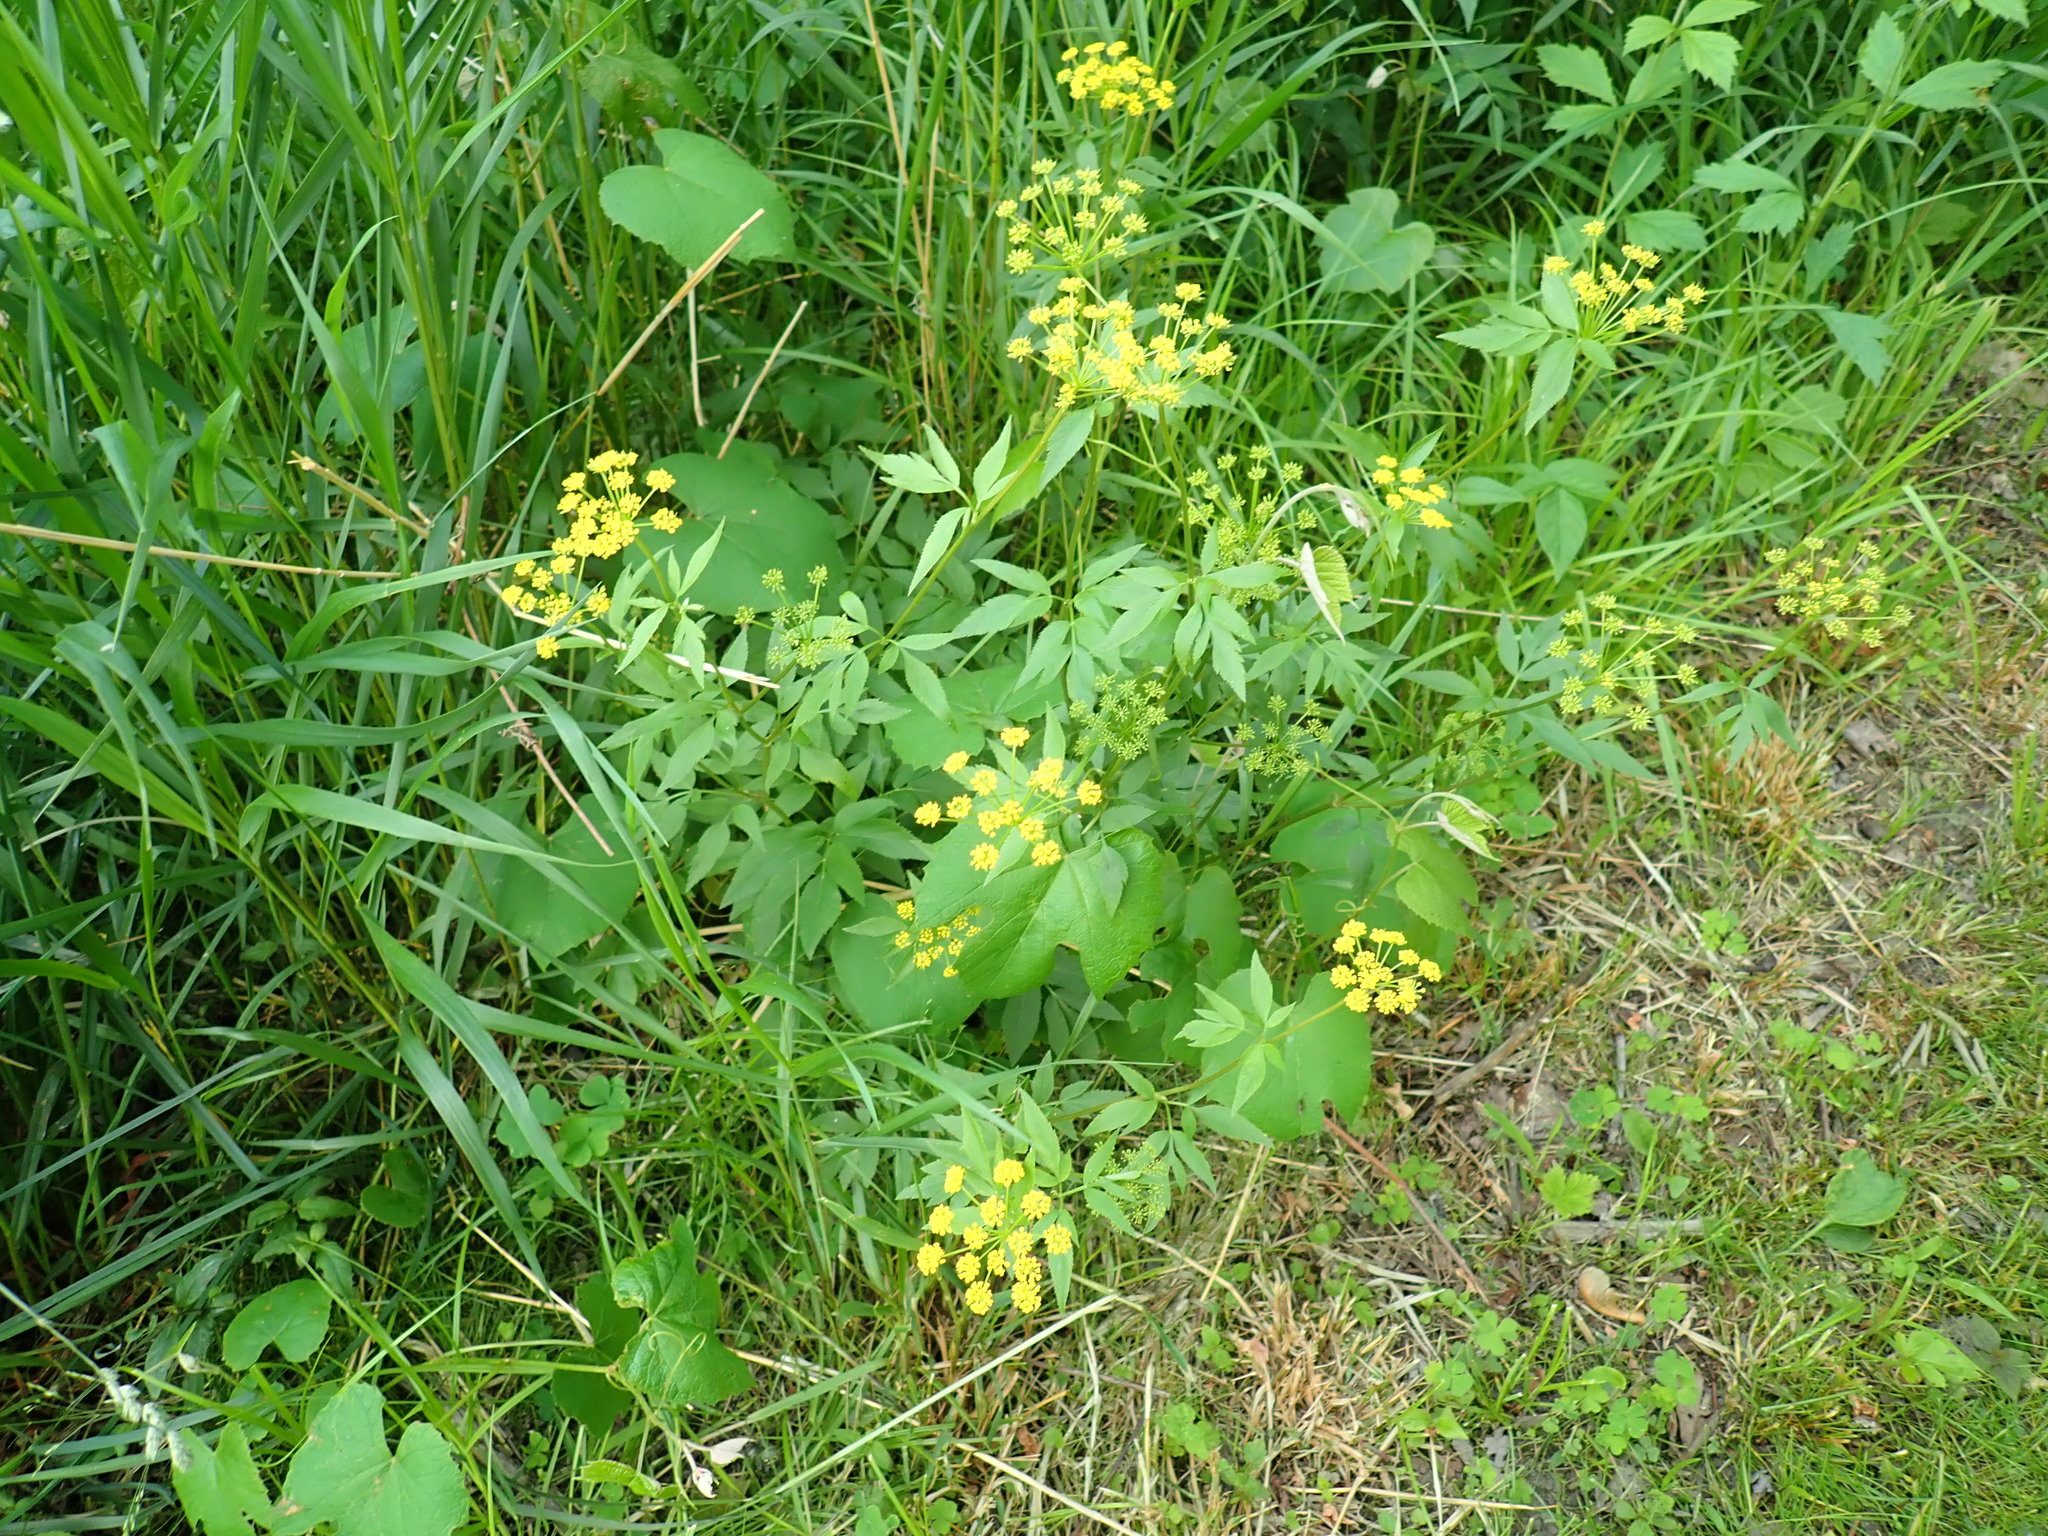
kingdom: Plantae
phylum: Tracheophyta
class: Magnoliopsida
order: Apiales
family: Apiaceae
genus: Zizia
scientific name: Zizia aurea
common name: Golden alexanders
